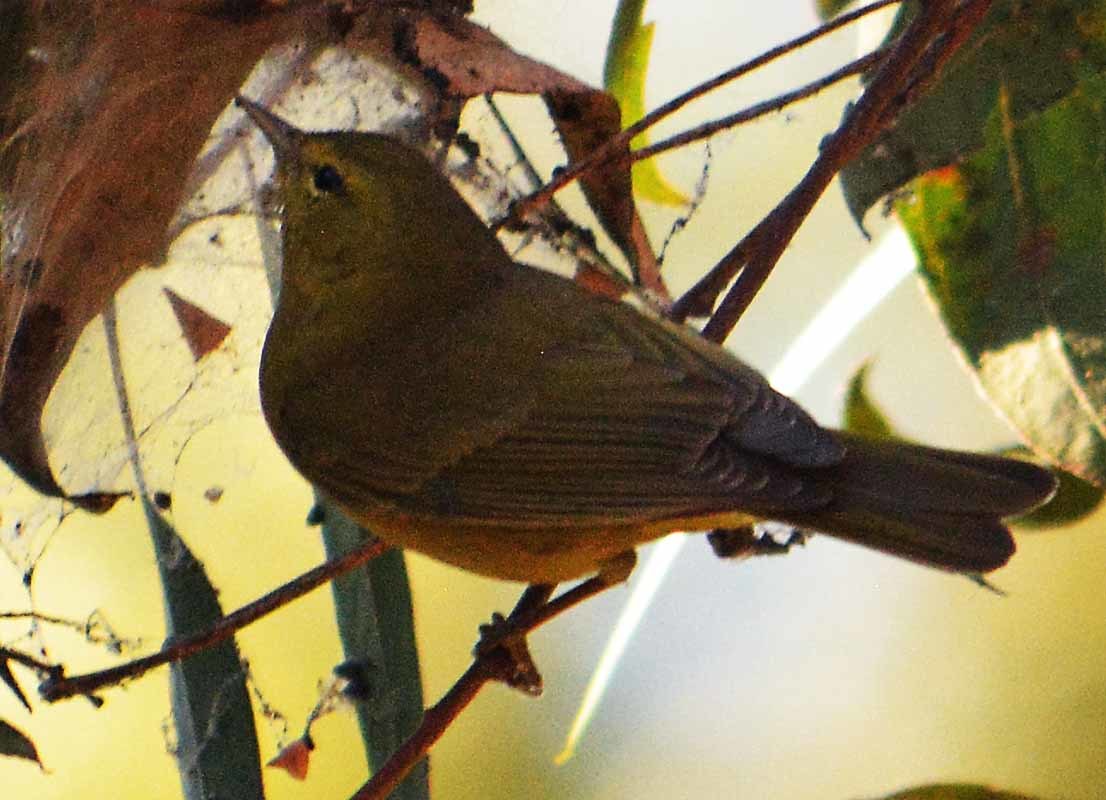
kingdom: Animalia
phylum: Chordata
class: Aves
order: Passeriformes
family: Parulidae
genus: Leiothlypis
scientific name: Leiothlypis celata
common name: Orange-crowned warbler
